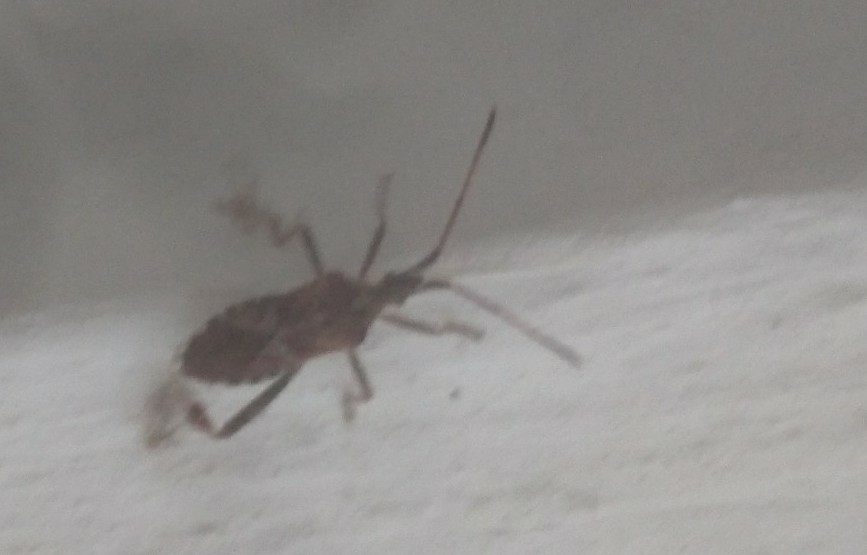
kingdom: Animalia
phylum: Arthropoda
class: Insecta
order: Hemiptera
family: Coreidae
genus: Leptoglossus
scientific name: Leptoglossus occidentalis
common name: Western conifer-seed bug
